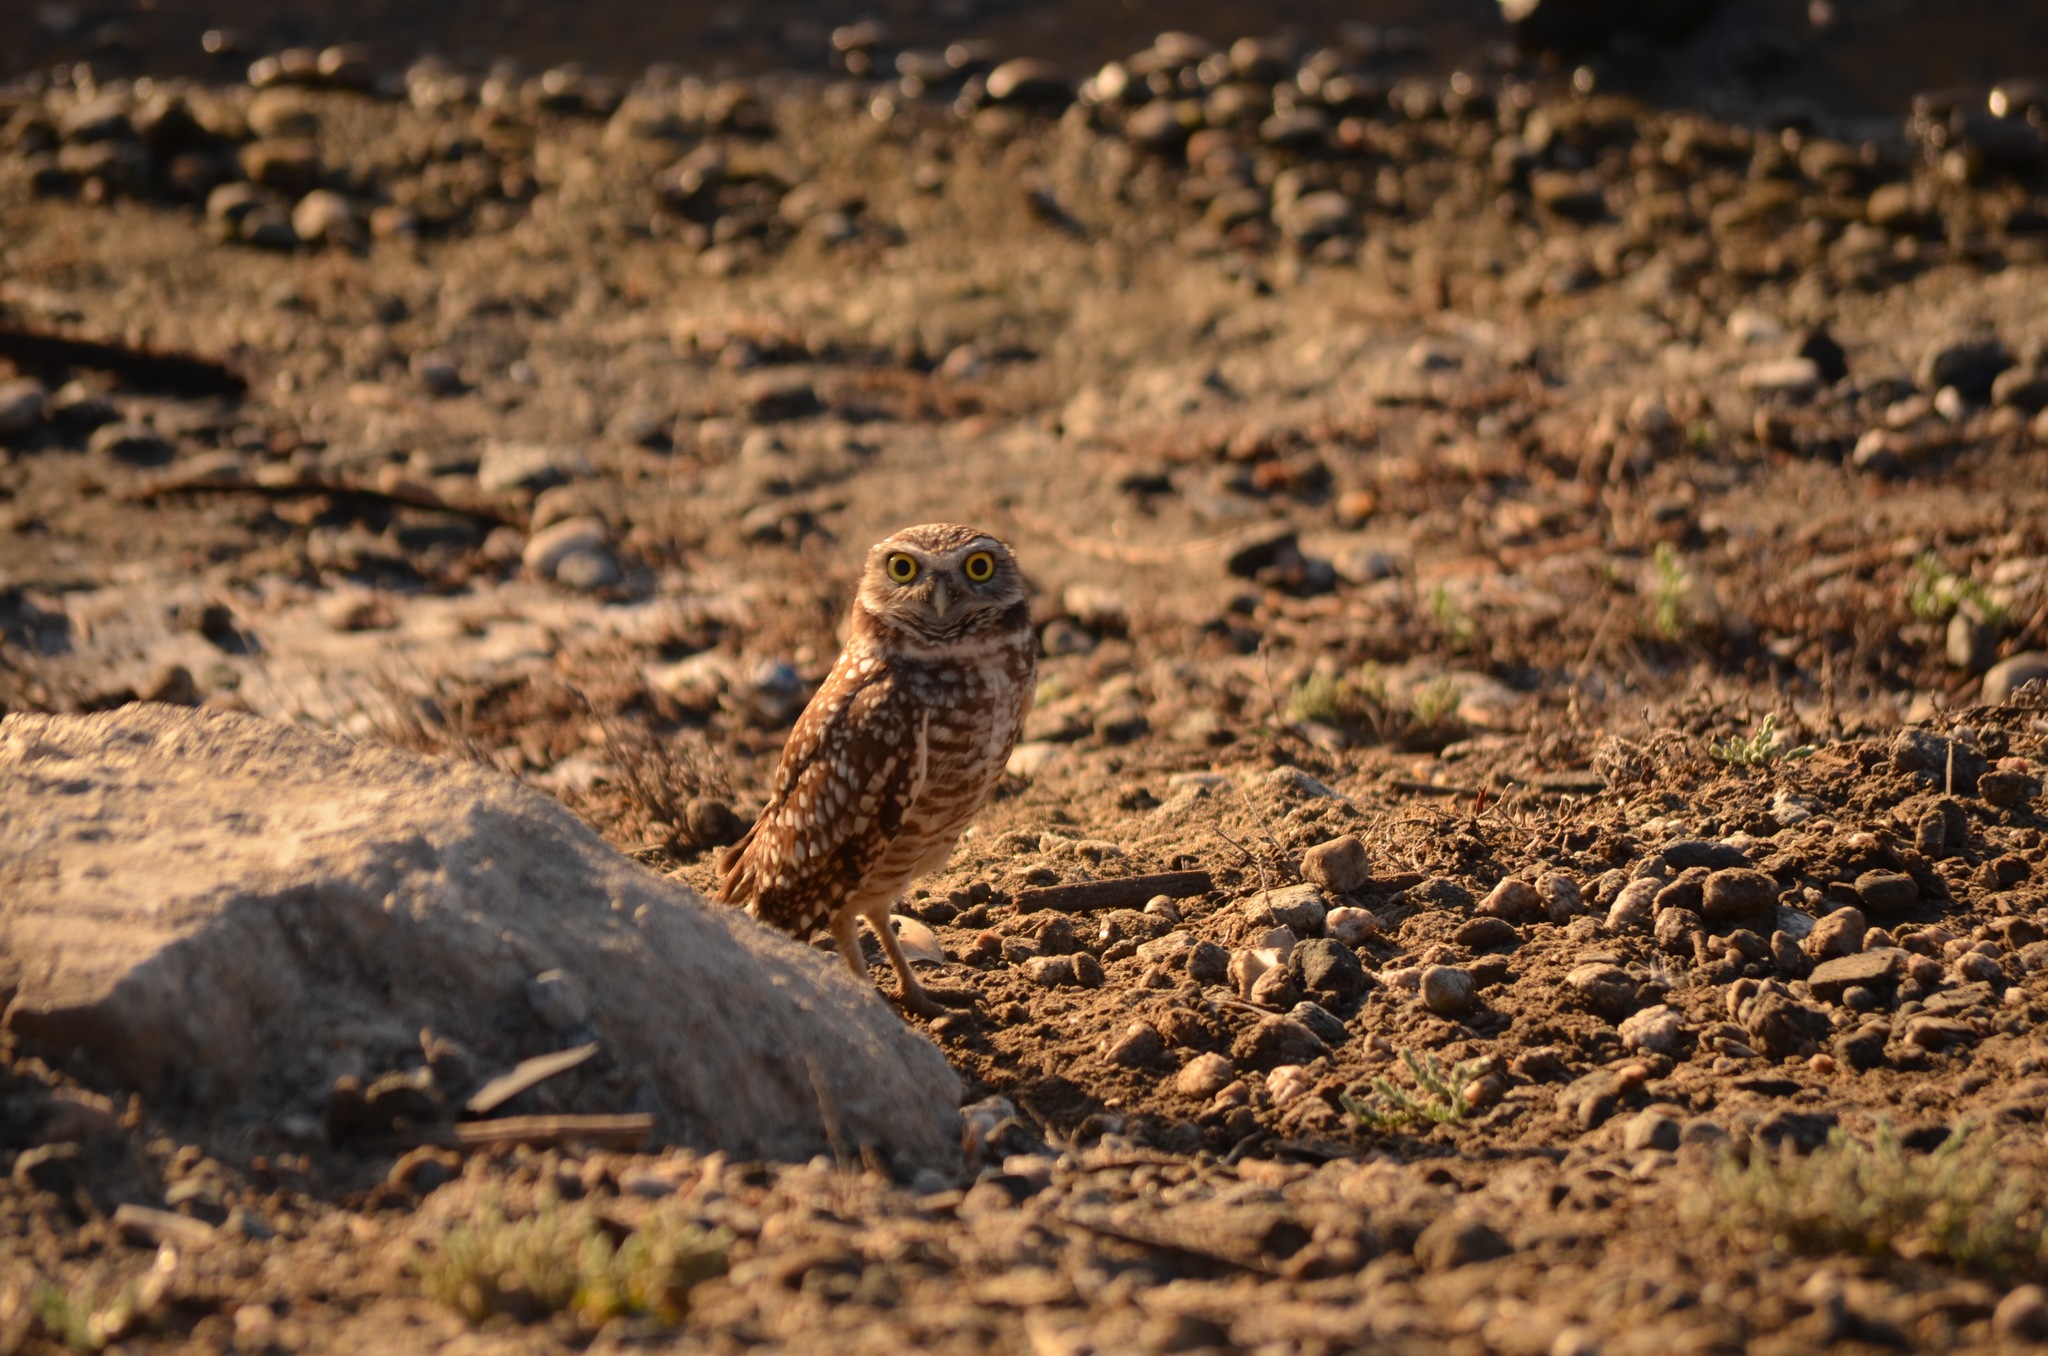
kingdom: Animalia
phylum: Chordata
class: Aves
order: Strigiformes
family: Strigidae
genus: Athene
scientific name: Athene cunicularia
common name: Burrowing owl
